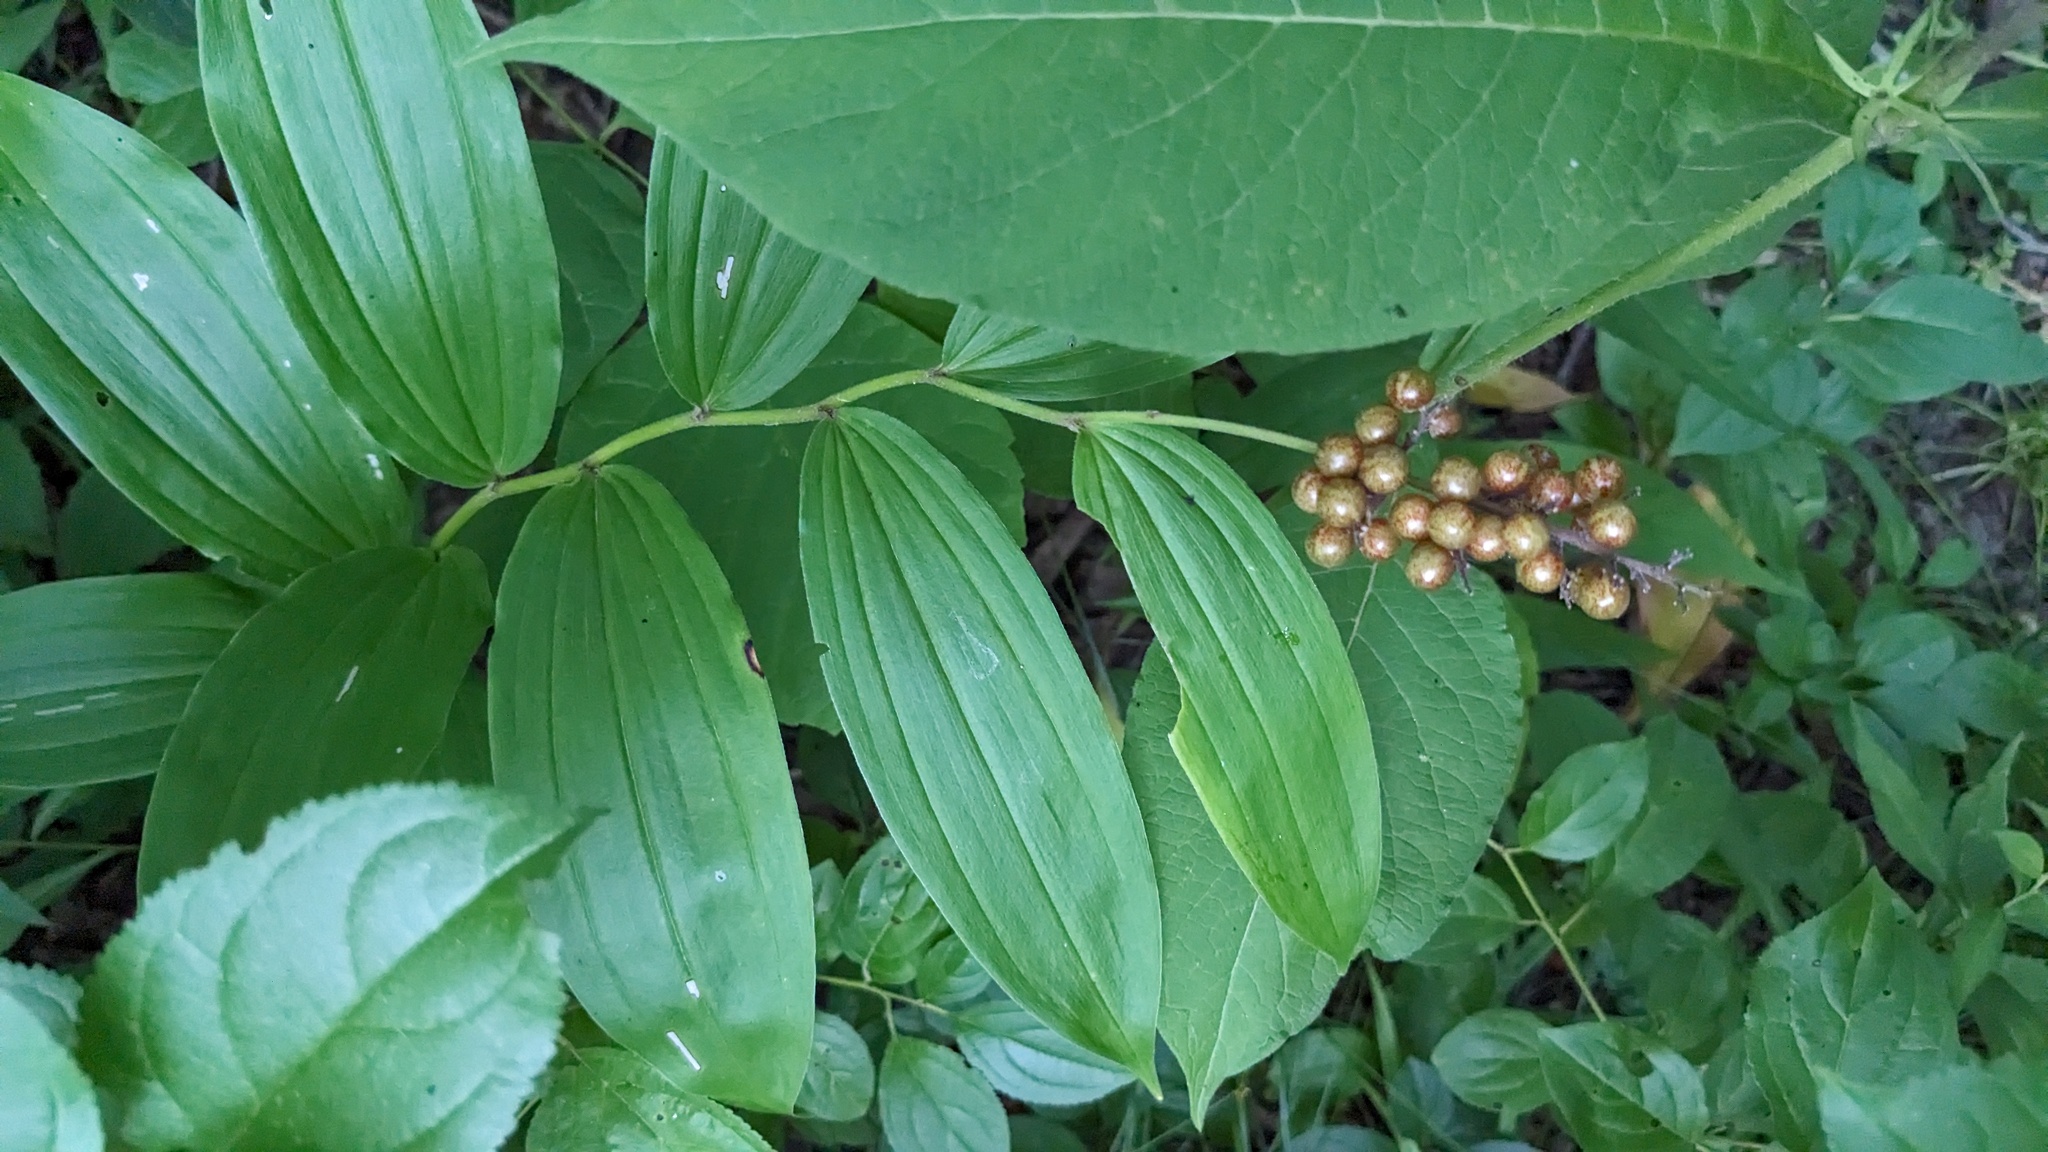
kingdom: Plantae
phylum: Tracheophyta
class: Liliopsida
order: Asparagales
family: Asparagaceae
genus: Maianthemum
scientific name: Maianthemum racemosum
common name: False spikenard
